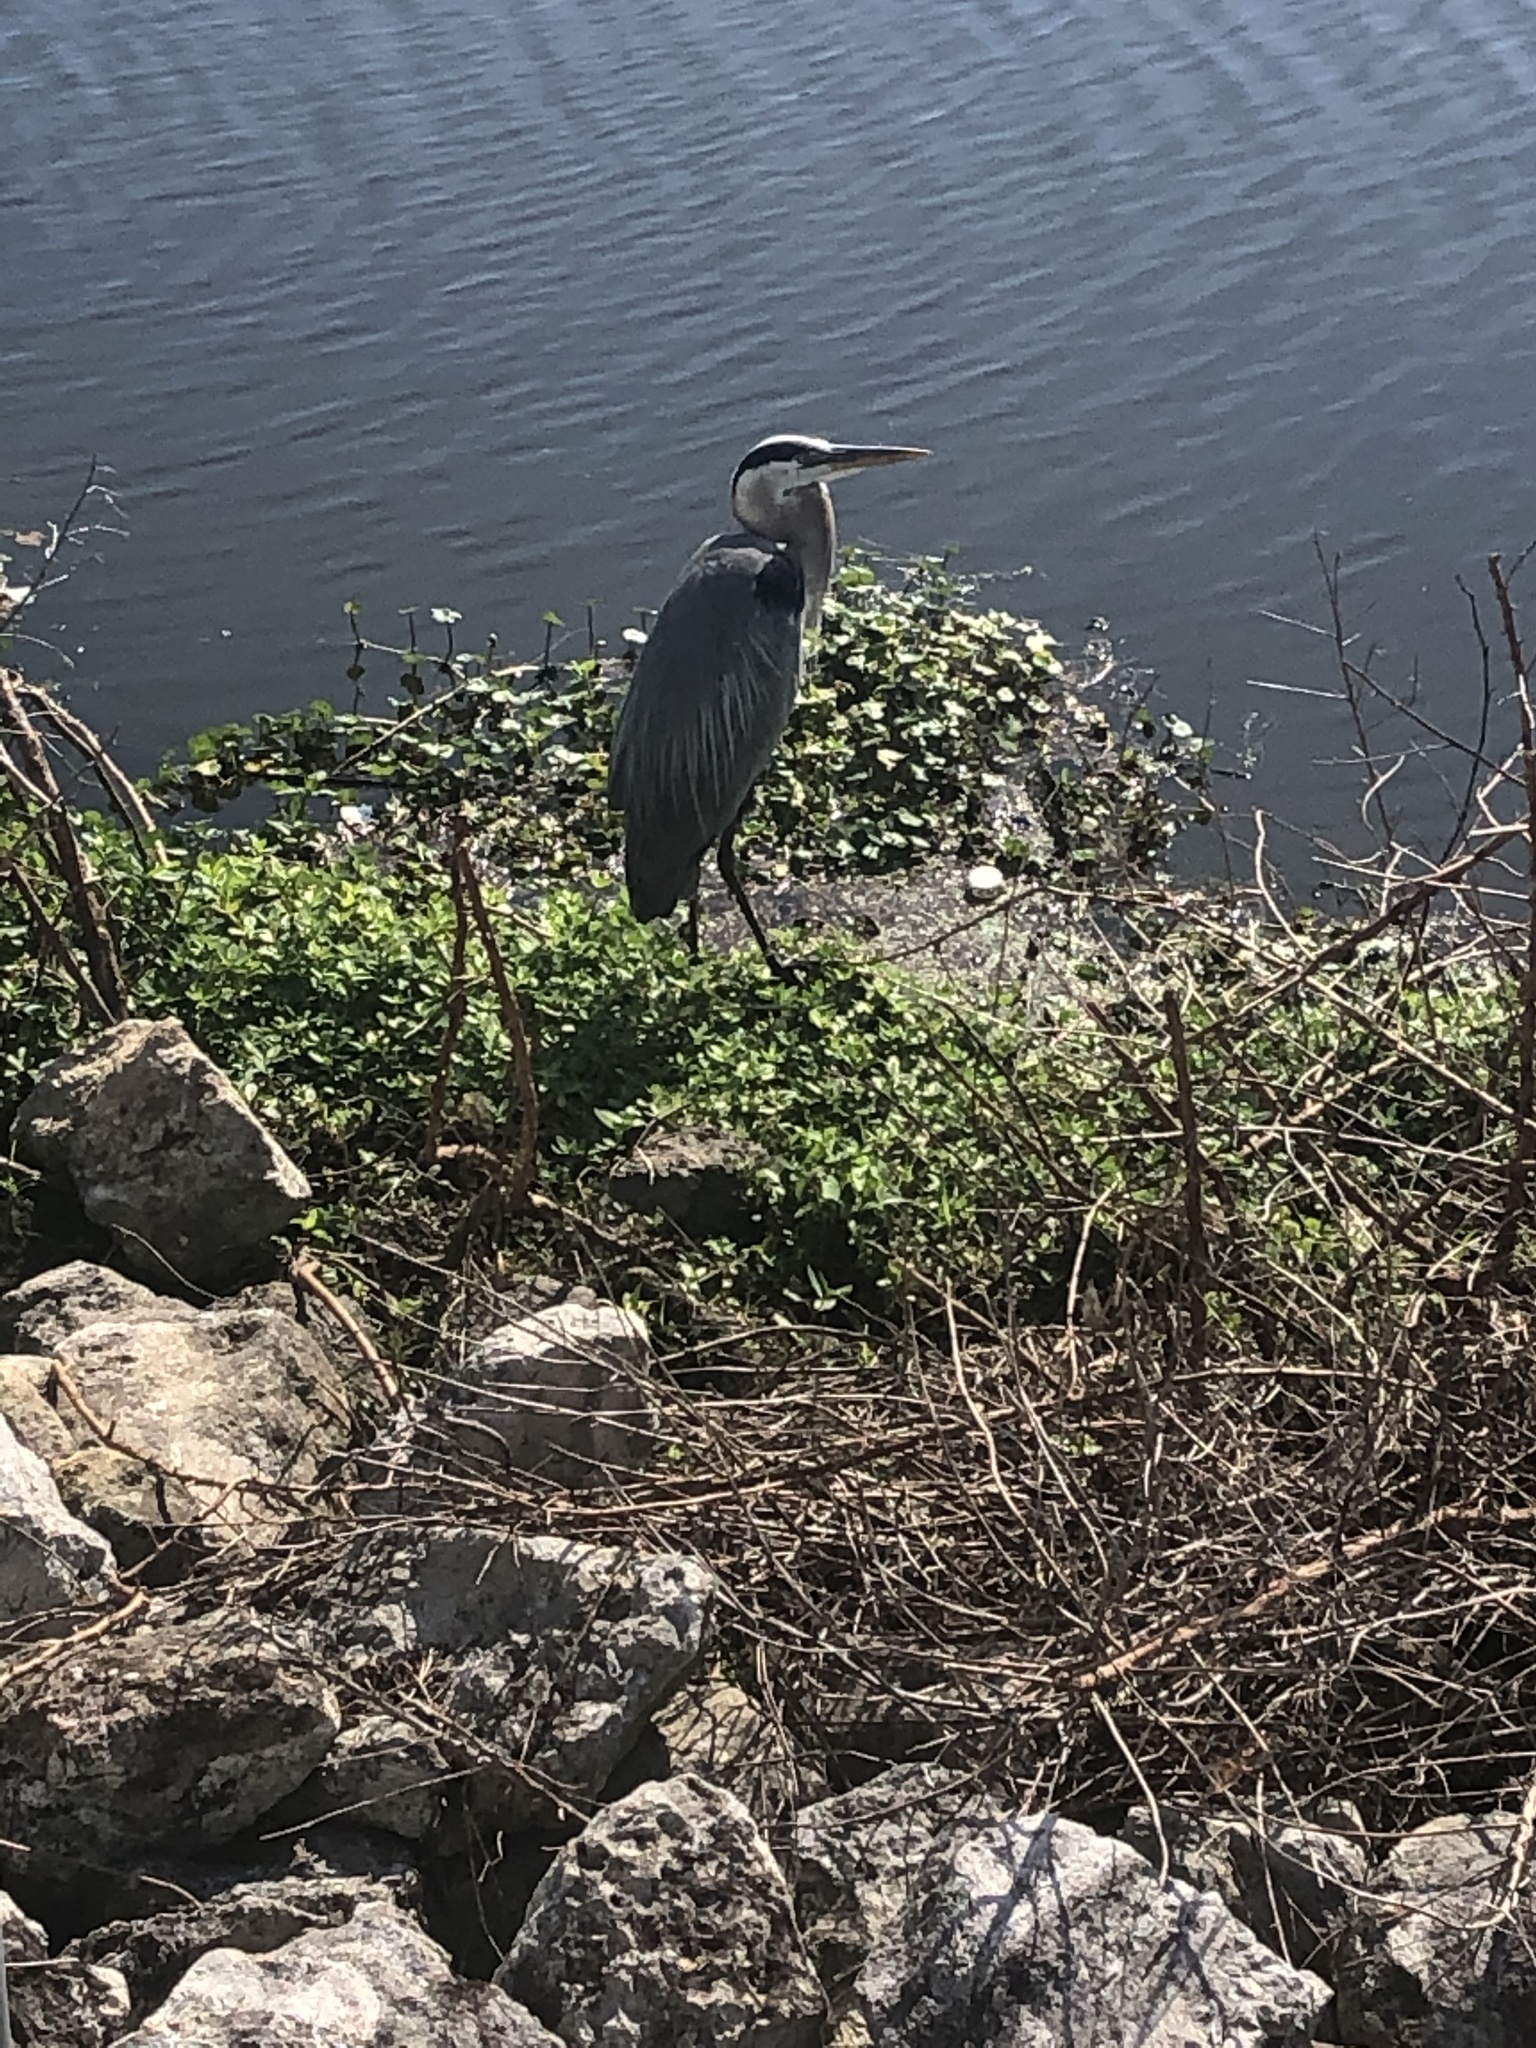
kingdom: Animalia
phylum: Chordata
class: Aves
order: Pelecaniformes
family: Ardeidae
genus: Ardea
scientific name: Ardea herodias
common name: Great blue heron
